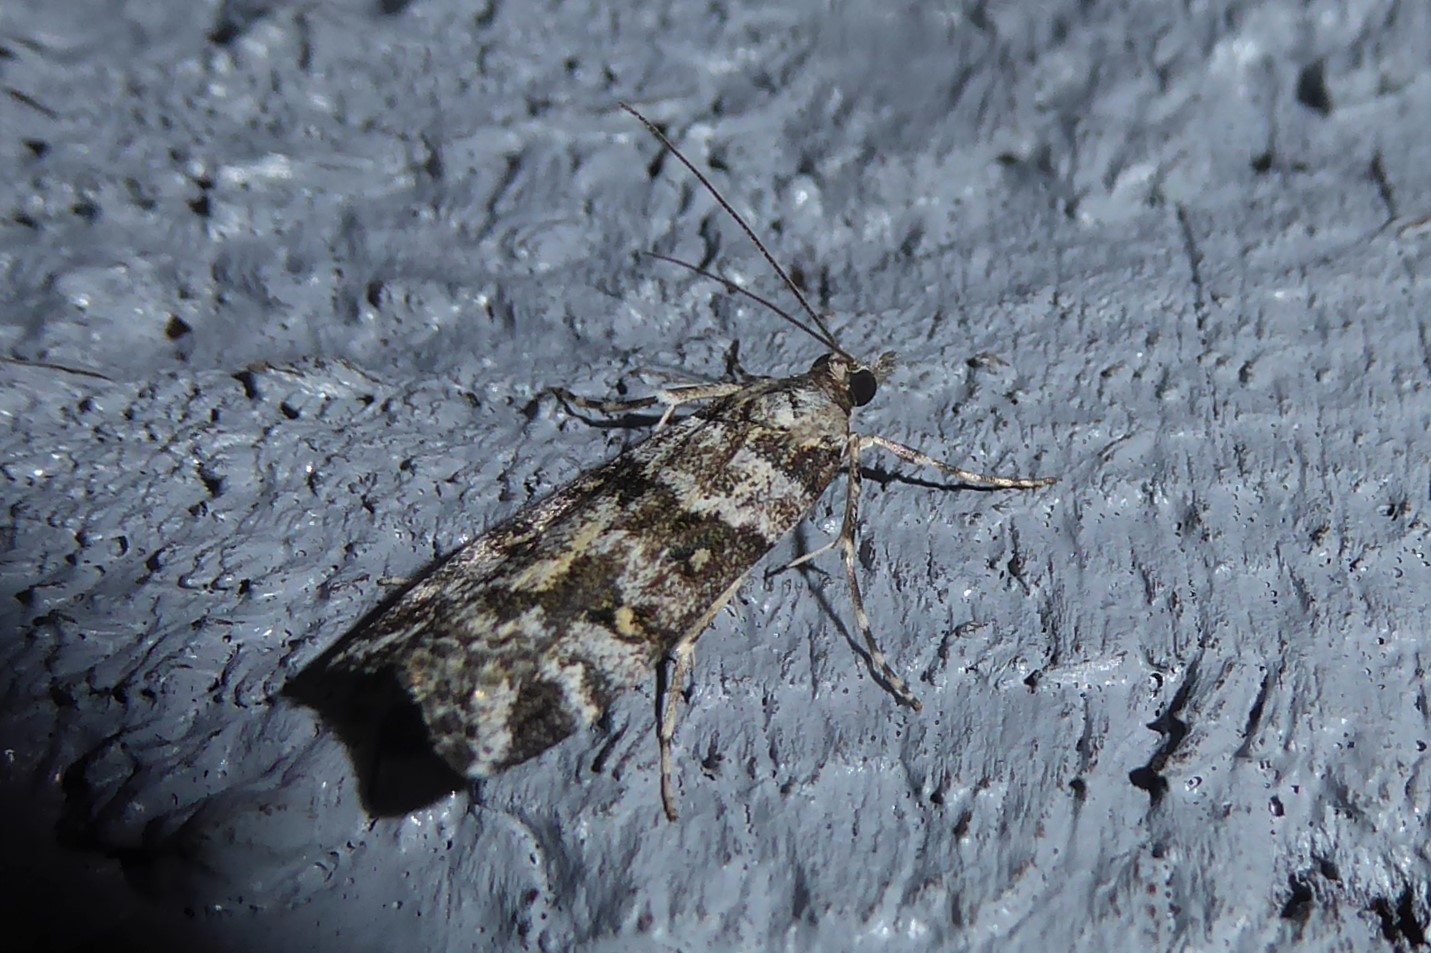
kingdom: Animalia
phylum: Arthropoda
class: Insecta
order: Lepidoptera
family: Crambidae
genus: Eudonia
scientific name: Eudonia diphtheralis
